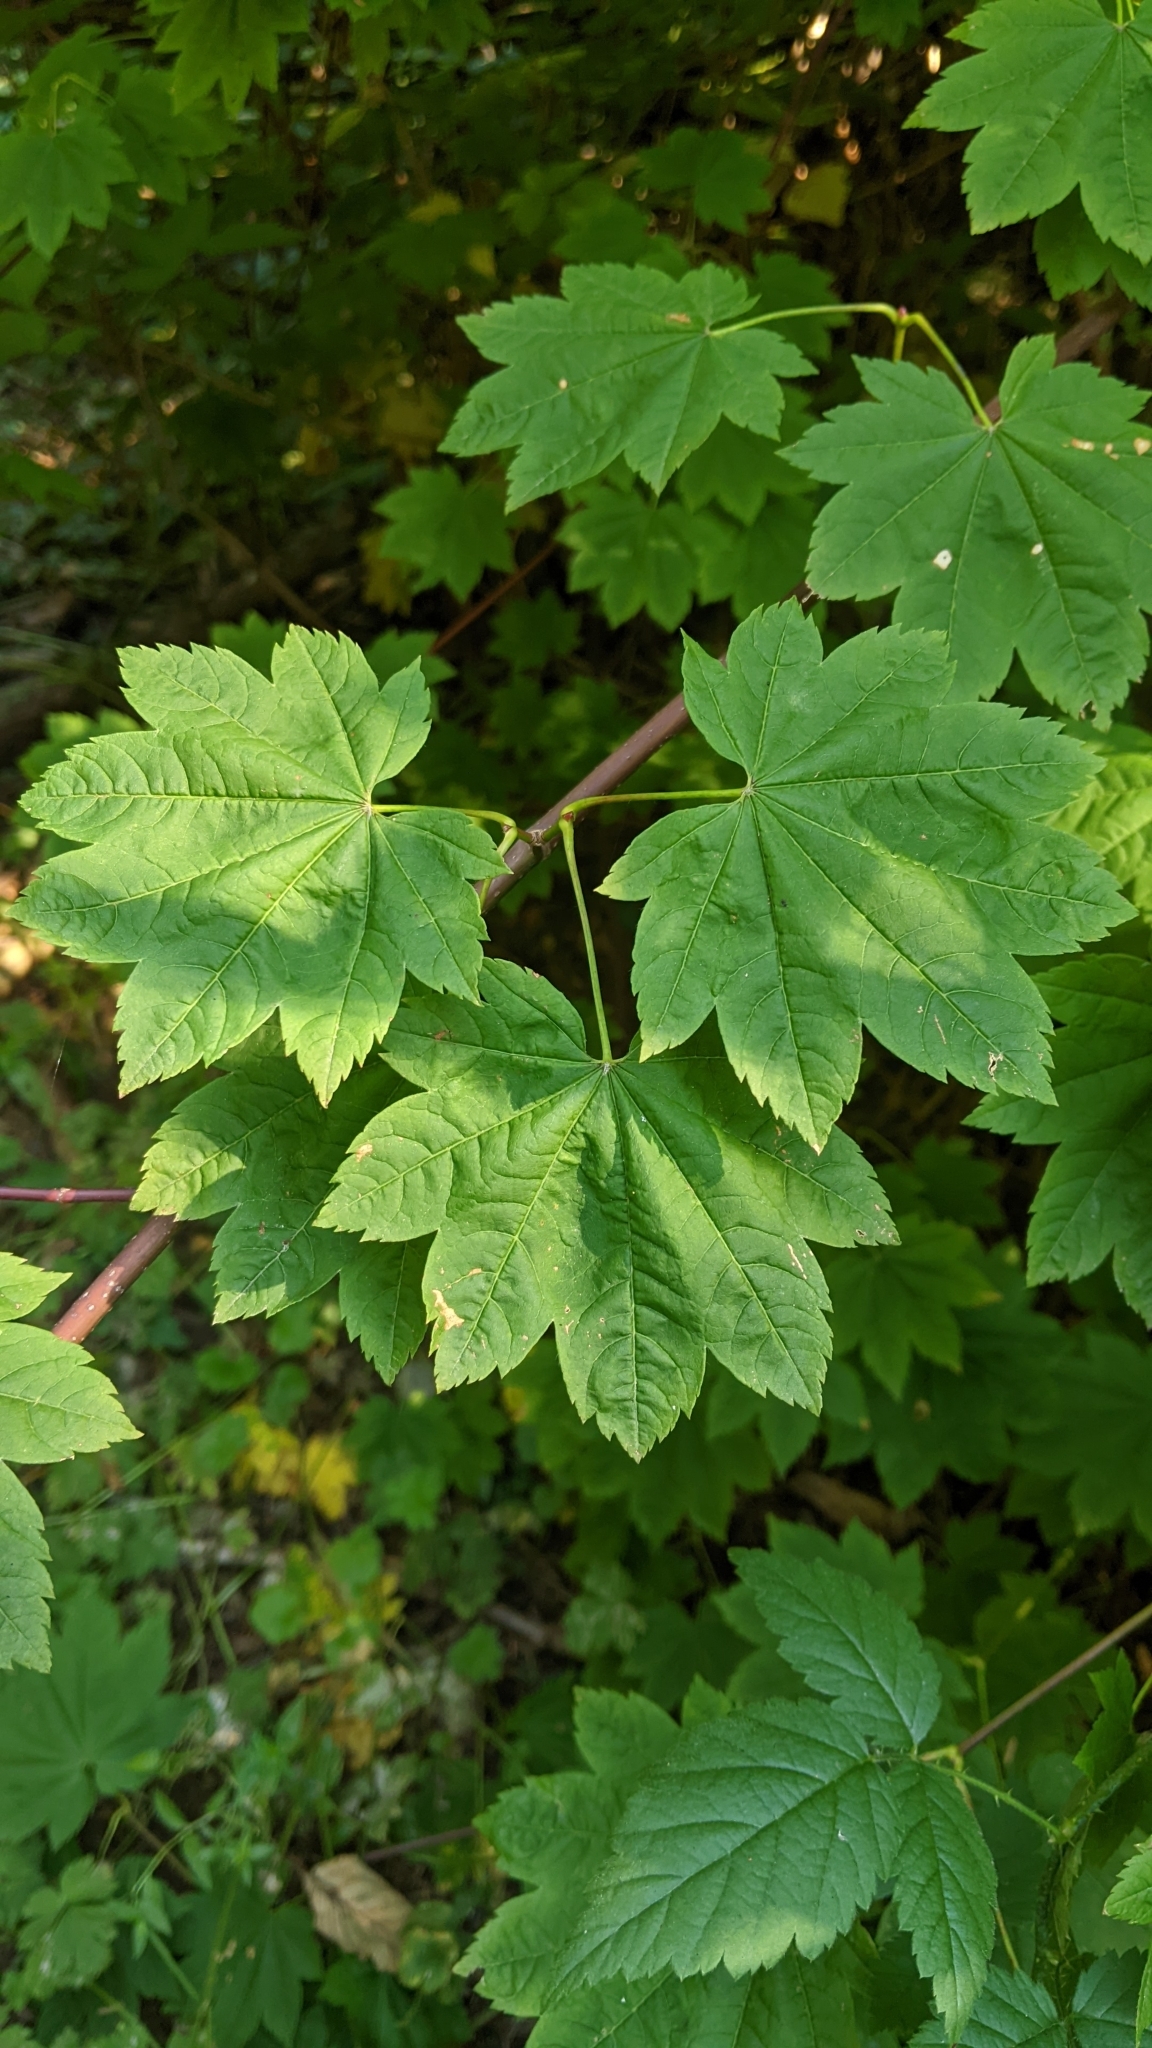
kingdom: Plantae
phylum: Tracheophyta
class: Magnoliopsida
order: Sapindales
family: Sapindaceae
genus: Acer
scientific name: Acer circinatum
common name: Vine maple
